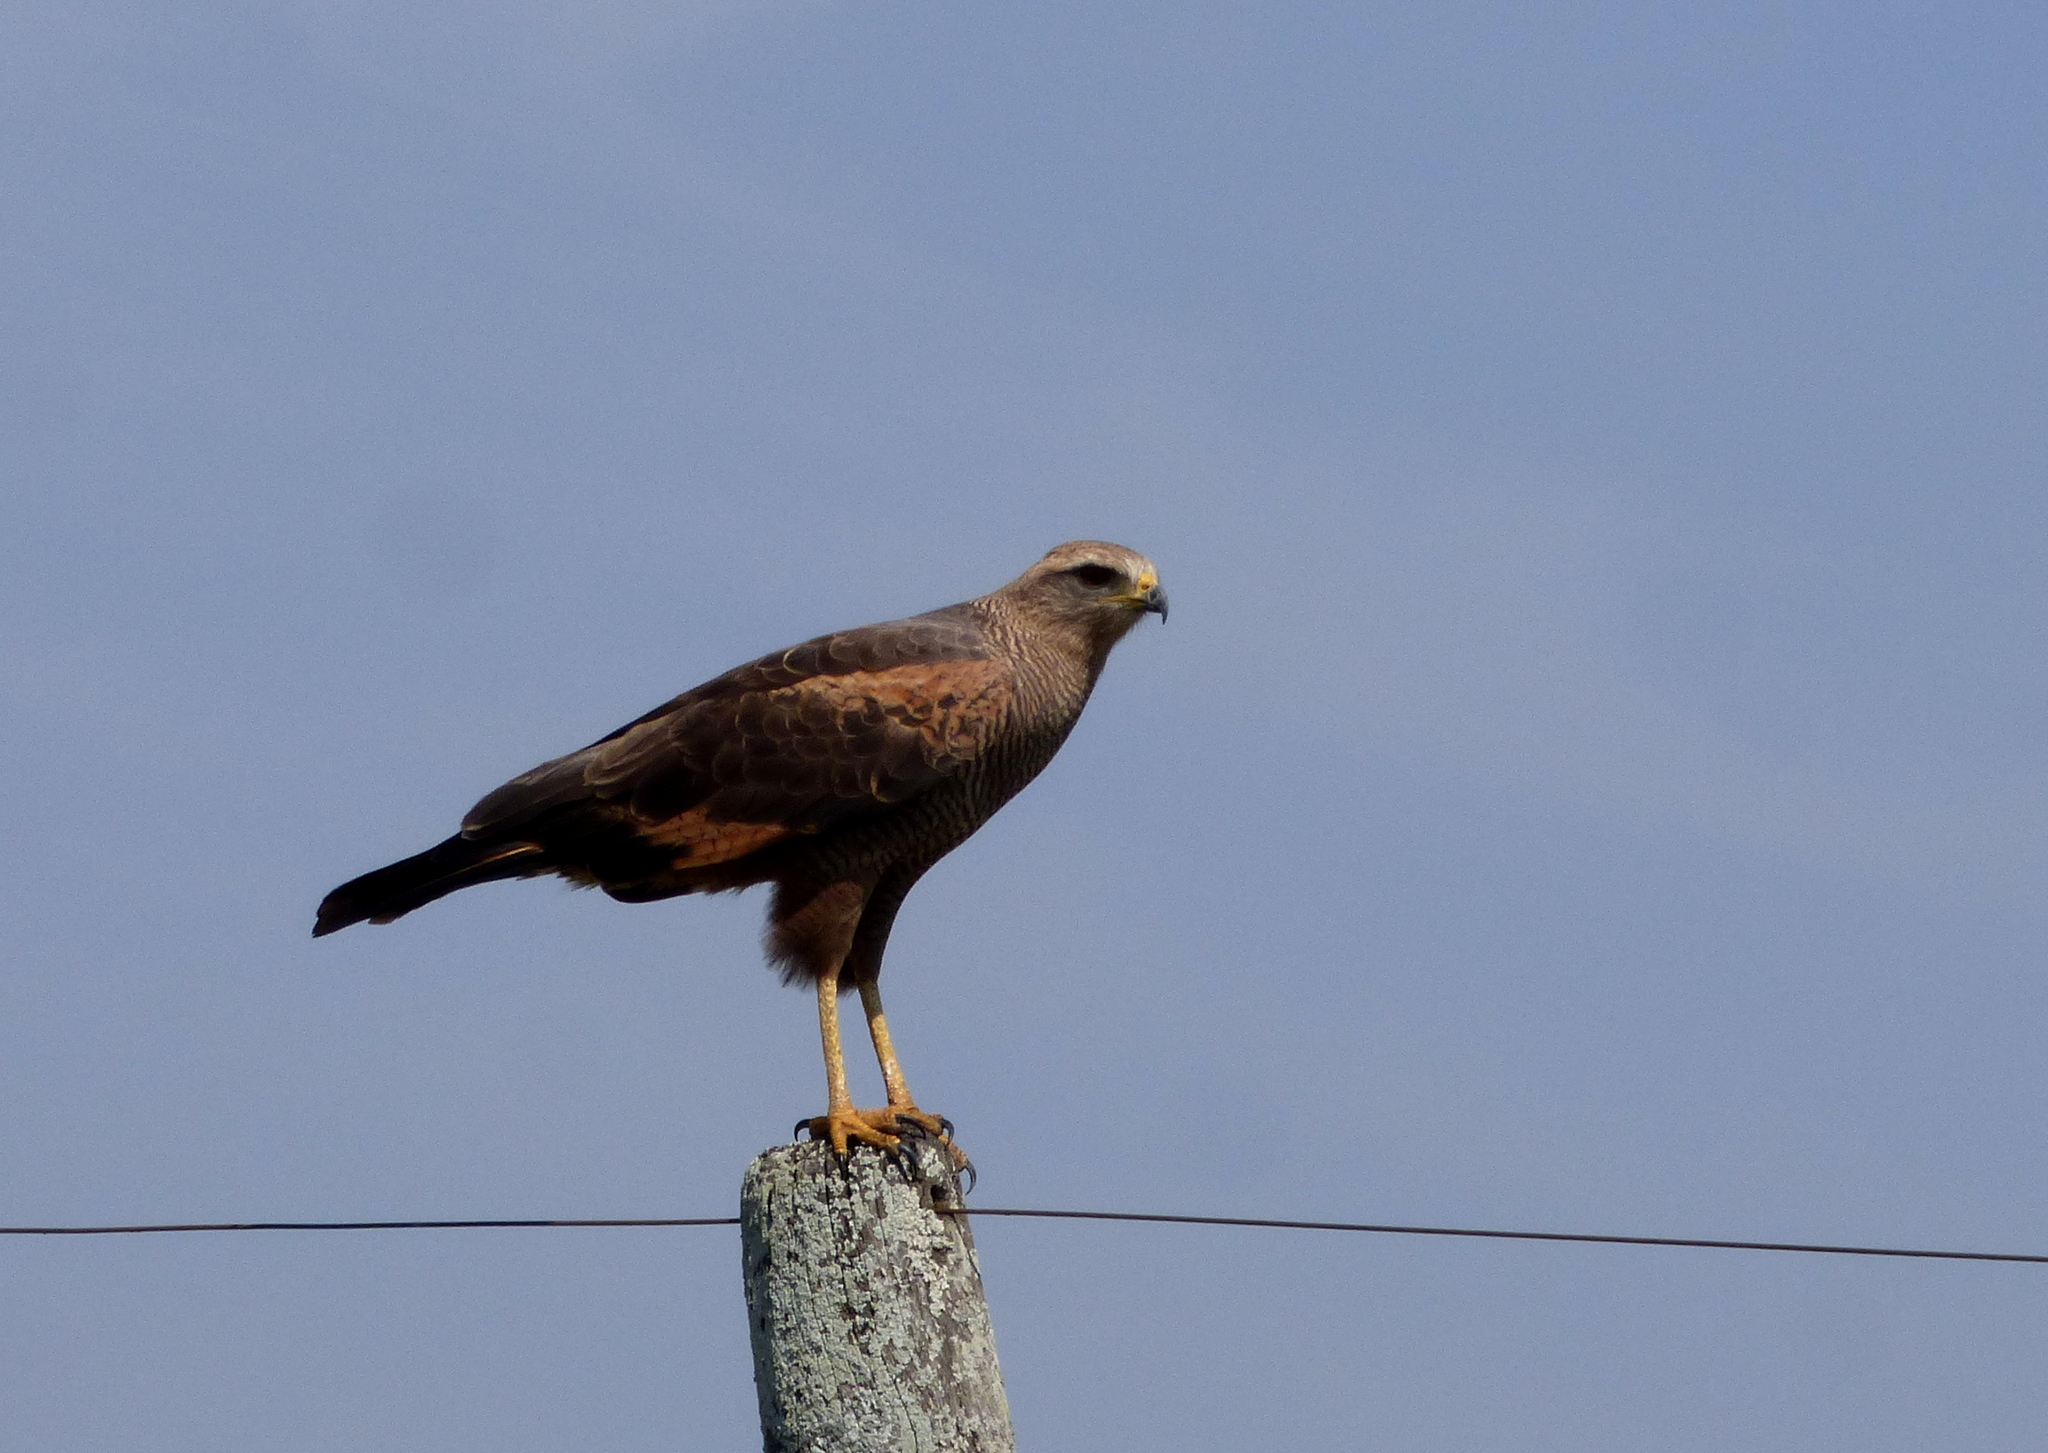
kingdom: Animalia
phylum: Chordata
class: Aves
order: Accipitriformes
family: Accipitridae
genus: Buteogallus
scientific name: Buteogallus meridionalis
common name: Savanna hawk
